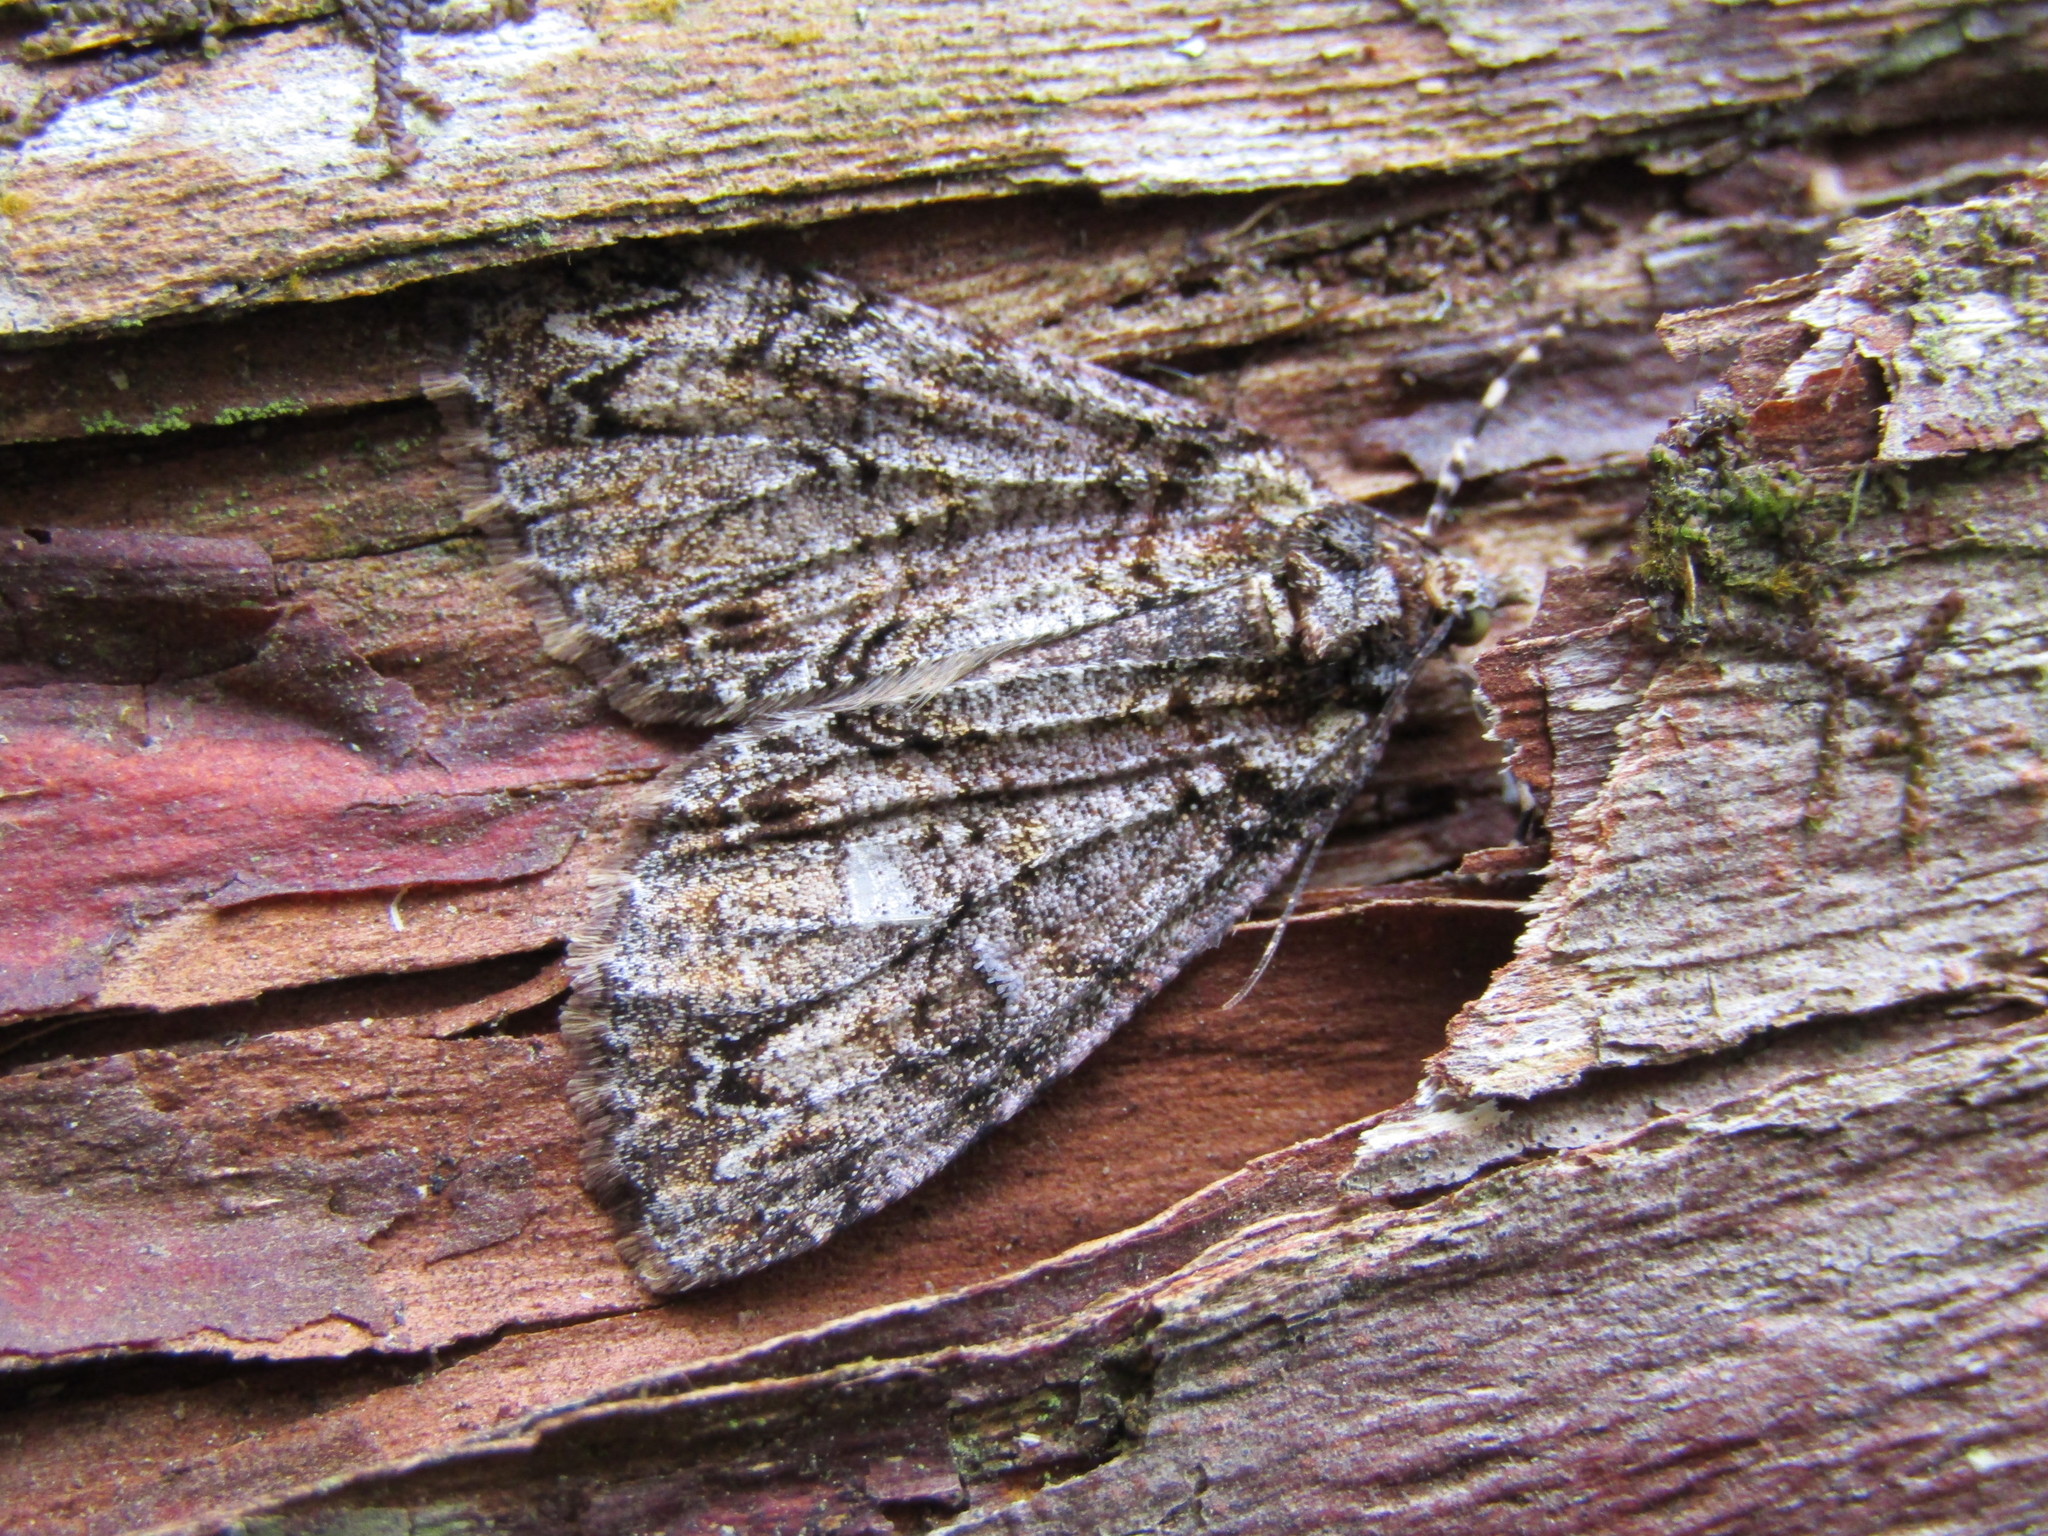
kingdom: Animalia
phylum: Arthropoda
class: Insecta
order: Lepidoptera
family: Geometridae
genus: Pseudocoremia
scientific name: Pseudocoremia suavis
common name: Common forest looper
